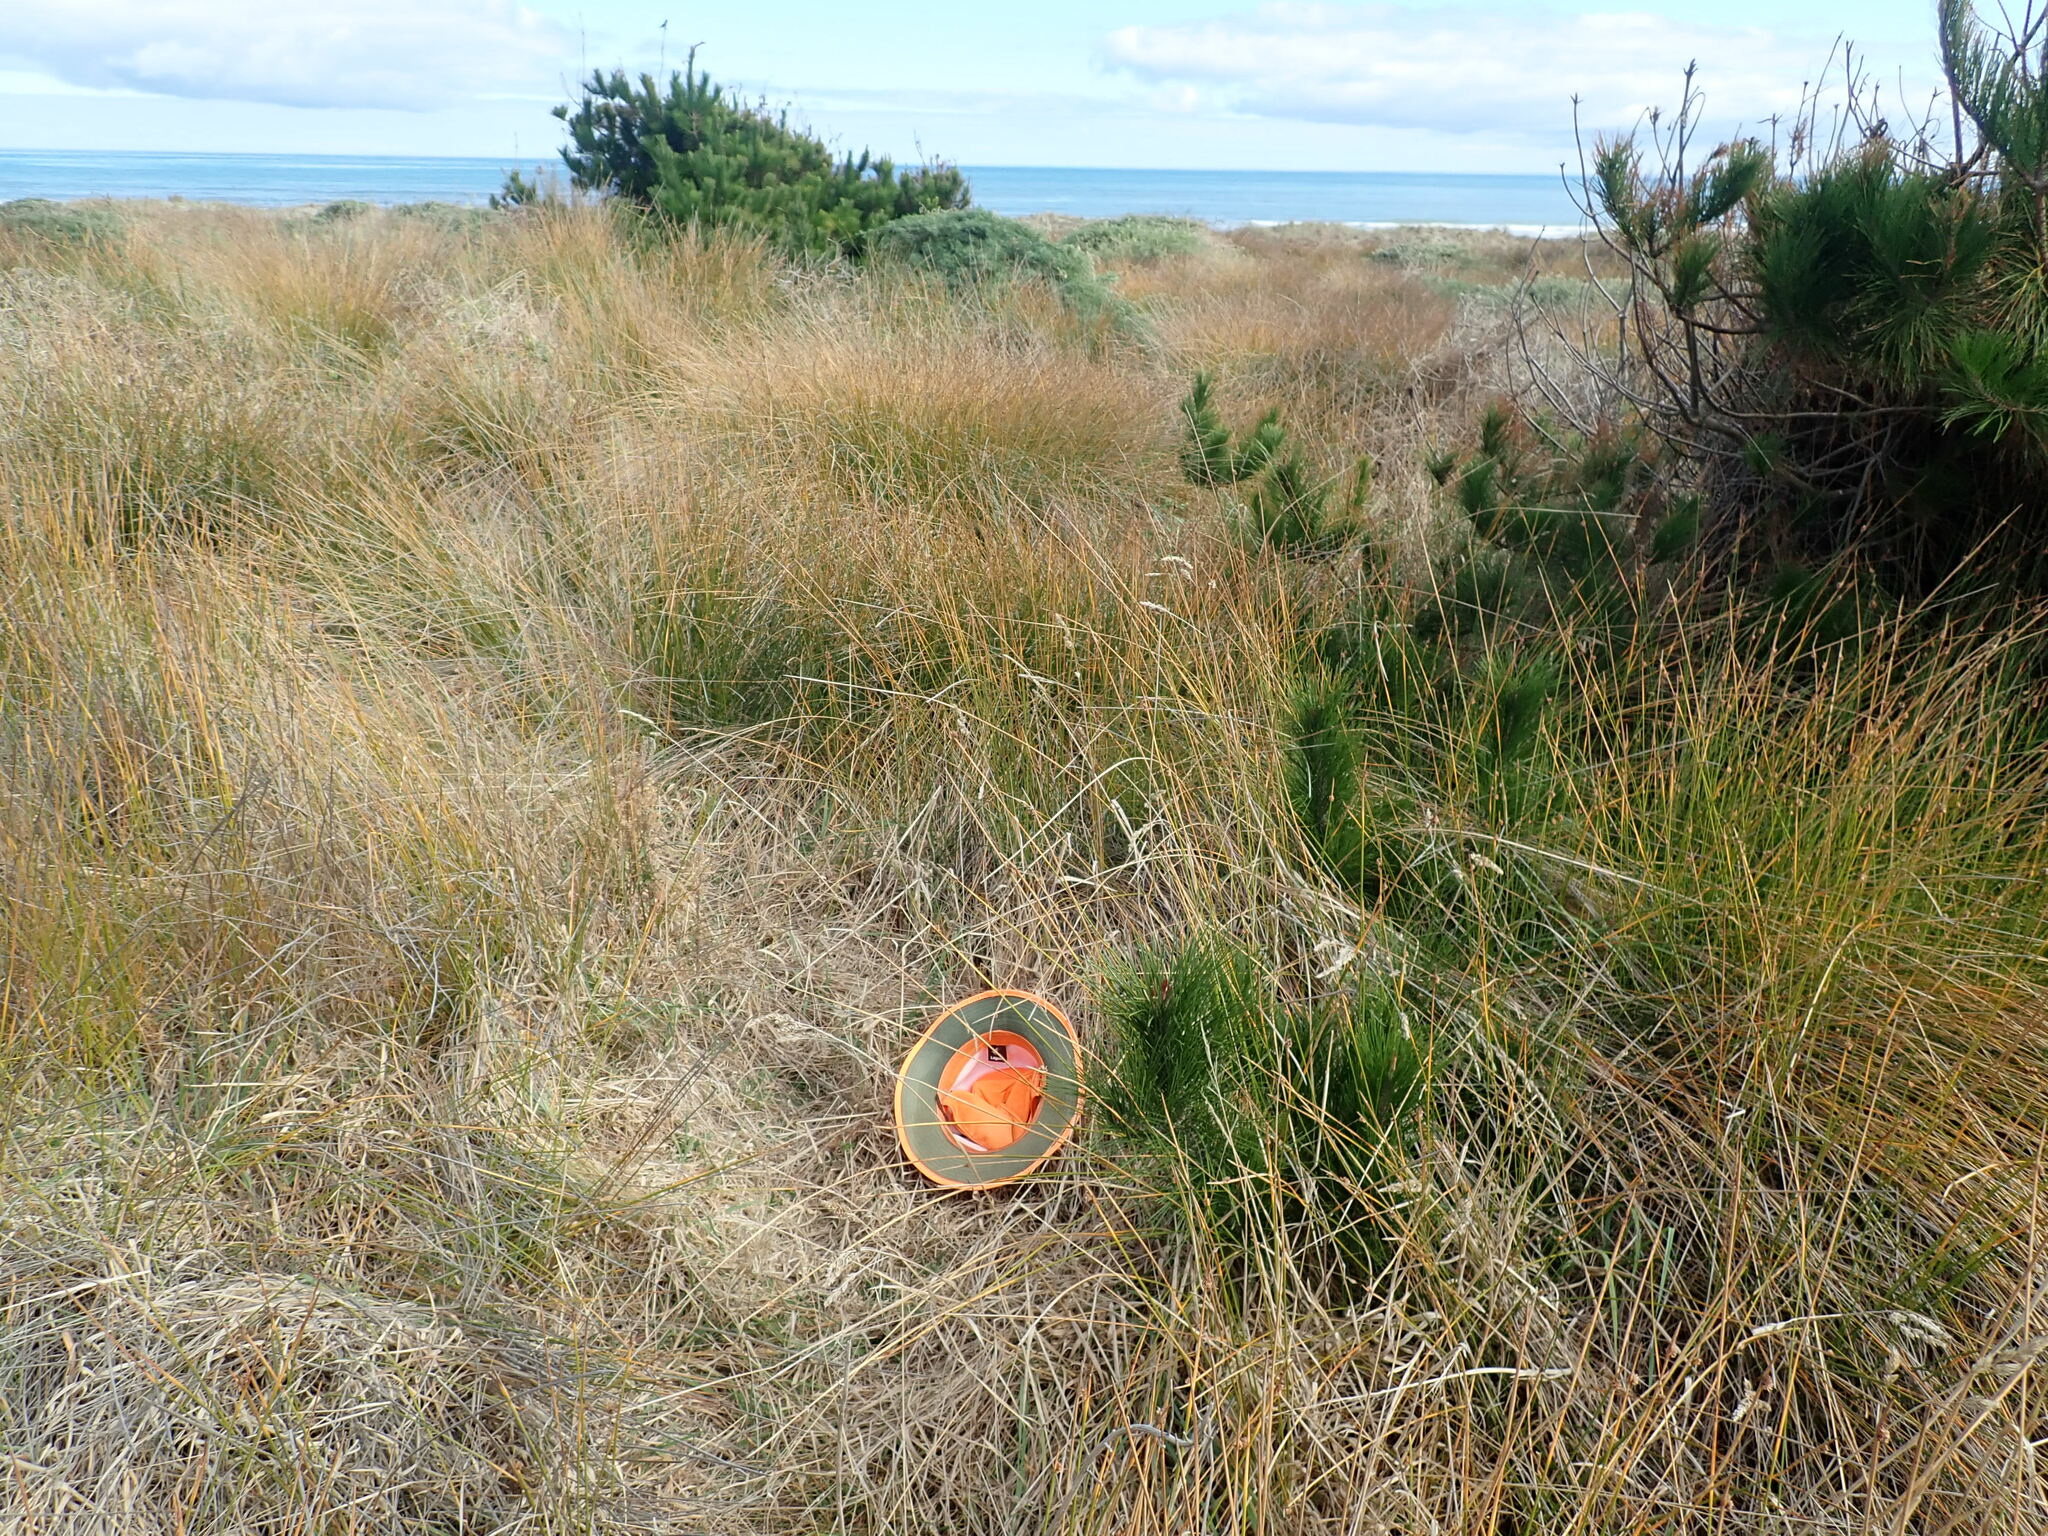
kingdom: Plantae
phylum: Tracheophyta
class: Magnoliopsida
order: Rosales
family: Rosaceae
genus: Acaena
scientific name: Acaena novae-zelandiae
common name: Pirri-pirri-bur
